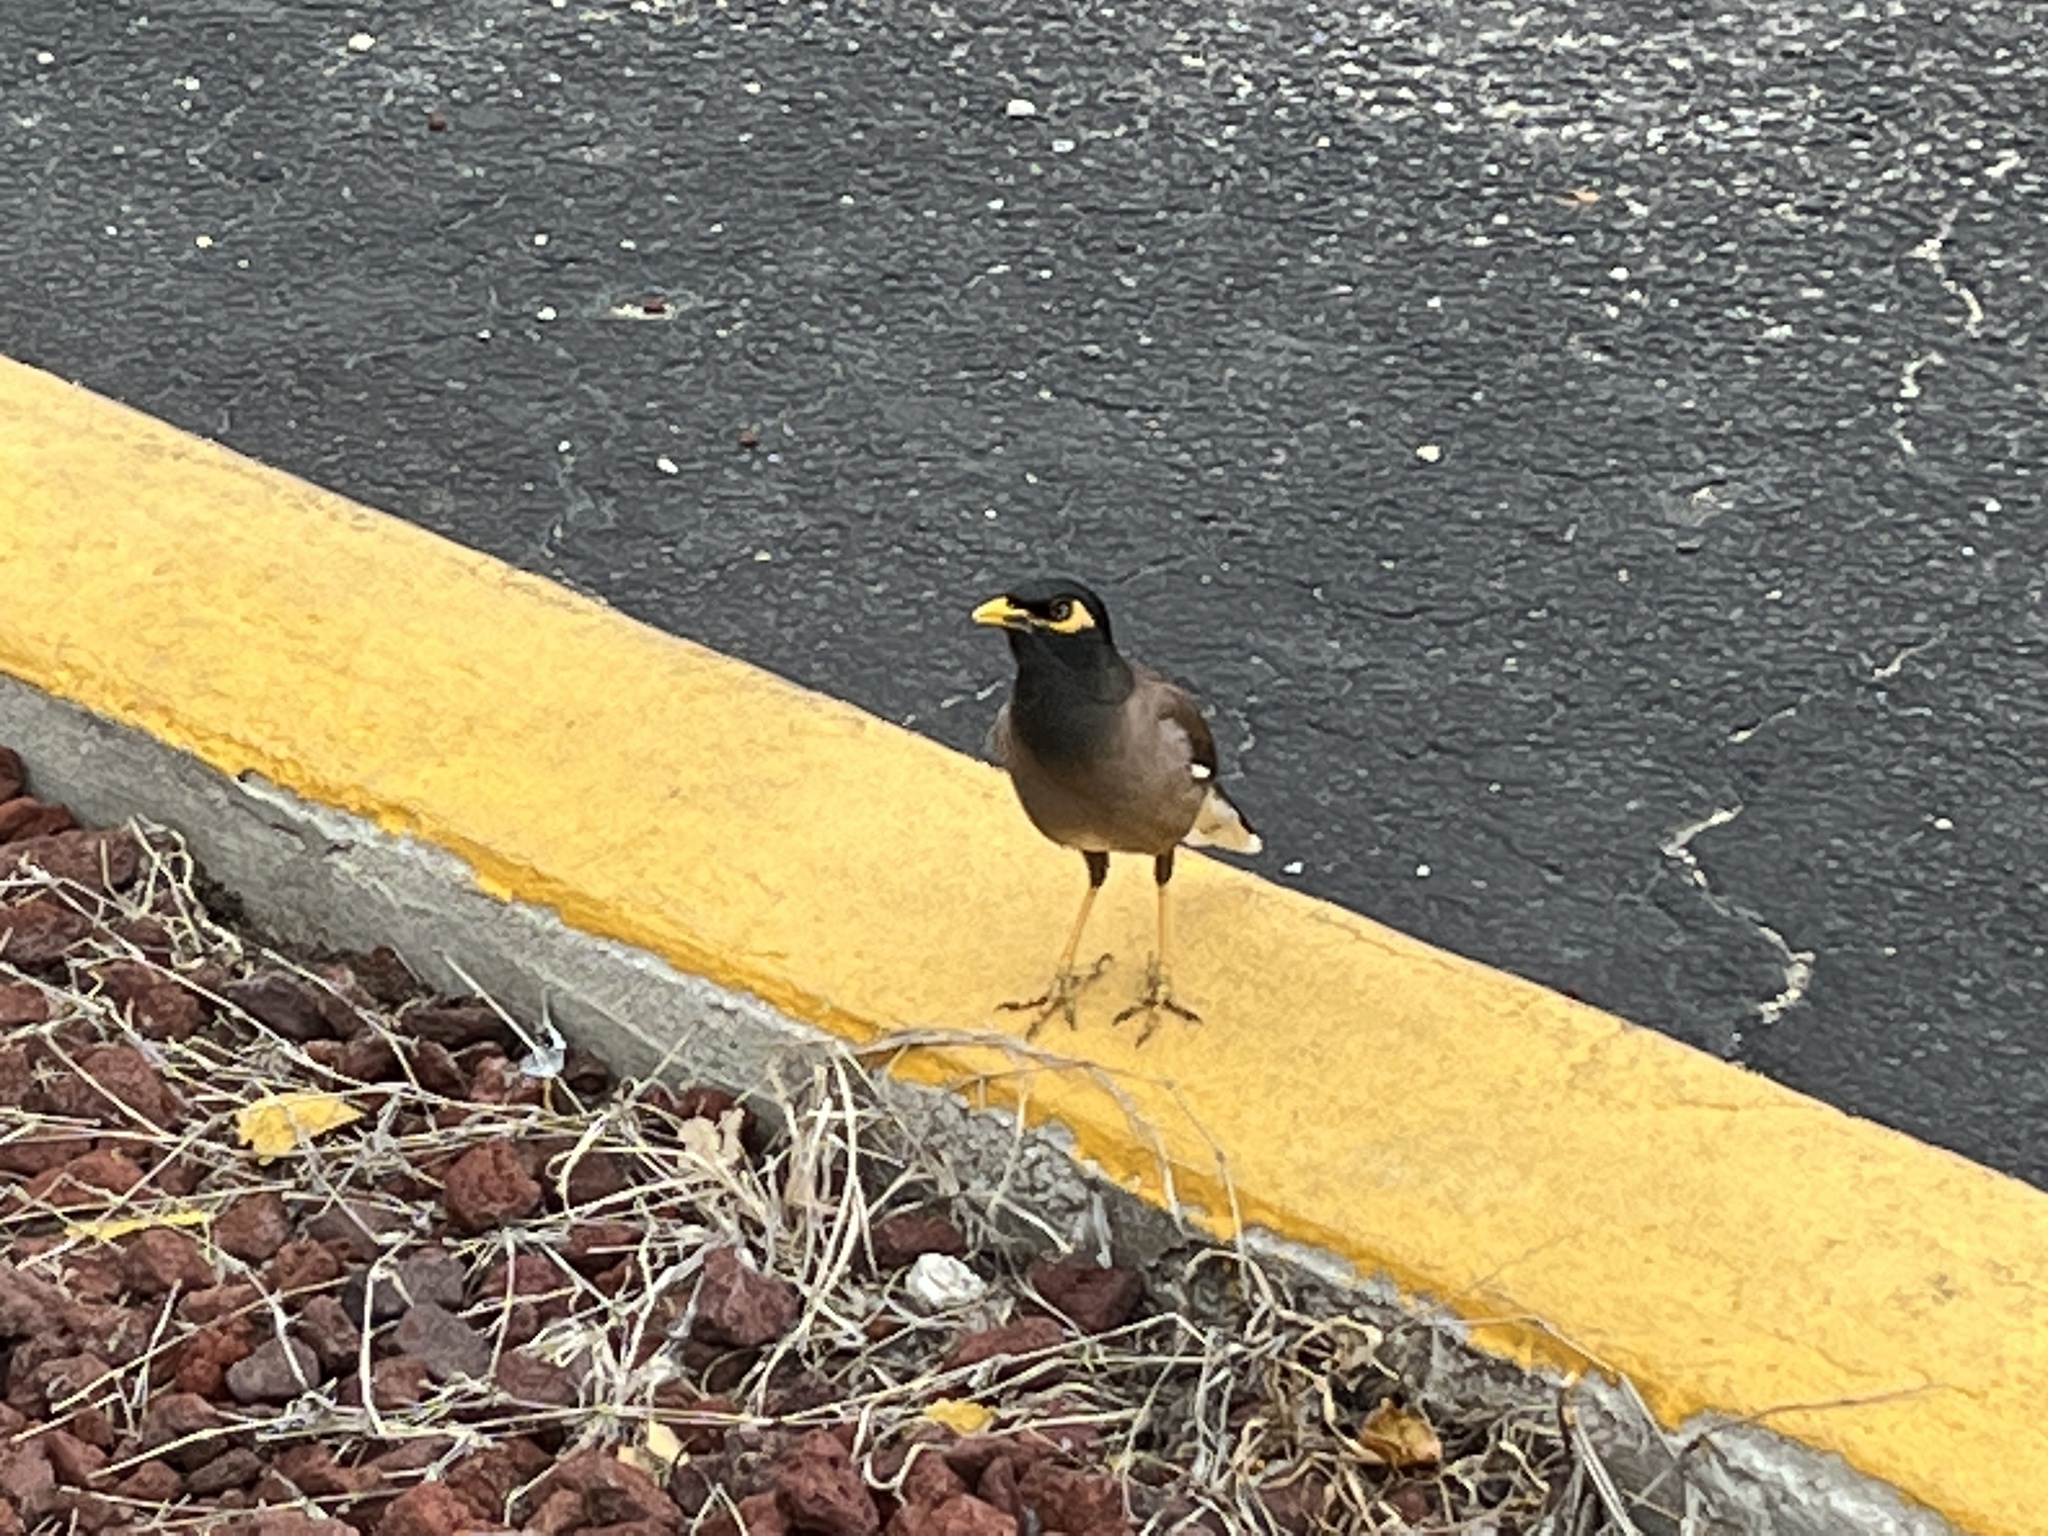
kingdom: Animalia
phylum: Chordata
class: Aves
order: Passeriformes
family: Sturnidae
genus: Acridotheres
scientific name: Acridotheres tristis
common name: Common myna
